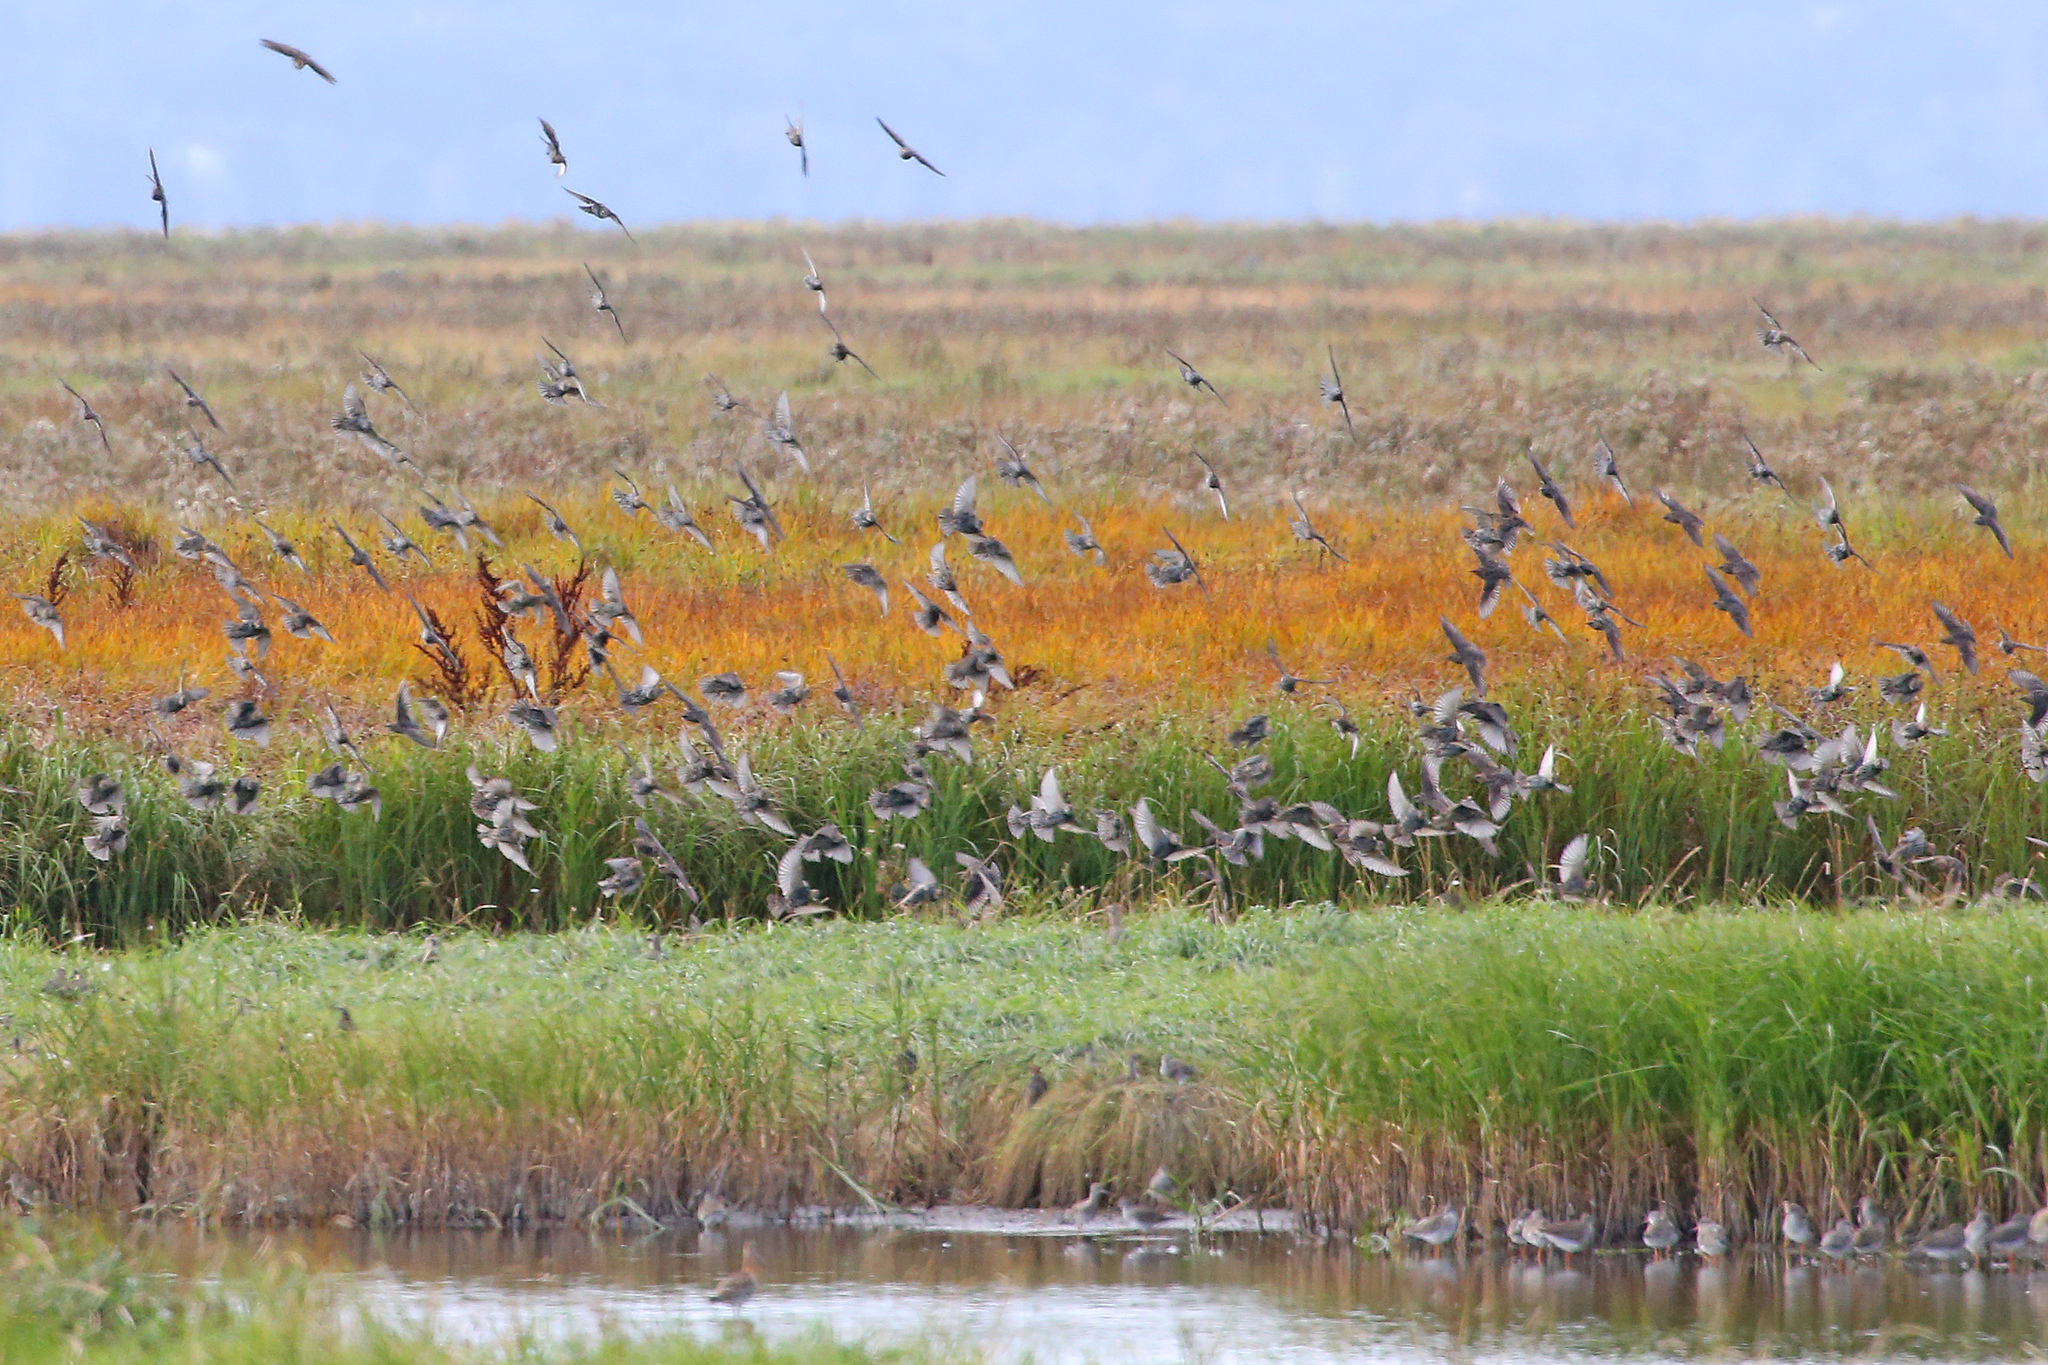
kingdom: Animalia
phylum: Chordata
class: Aves
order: Passeriformes
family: Sturnidae
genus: Sturnus
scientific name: Sturnus vulgaris
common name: Common starling
